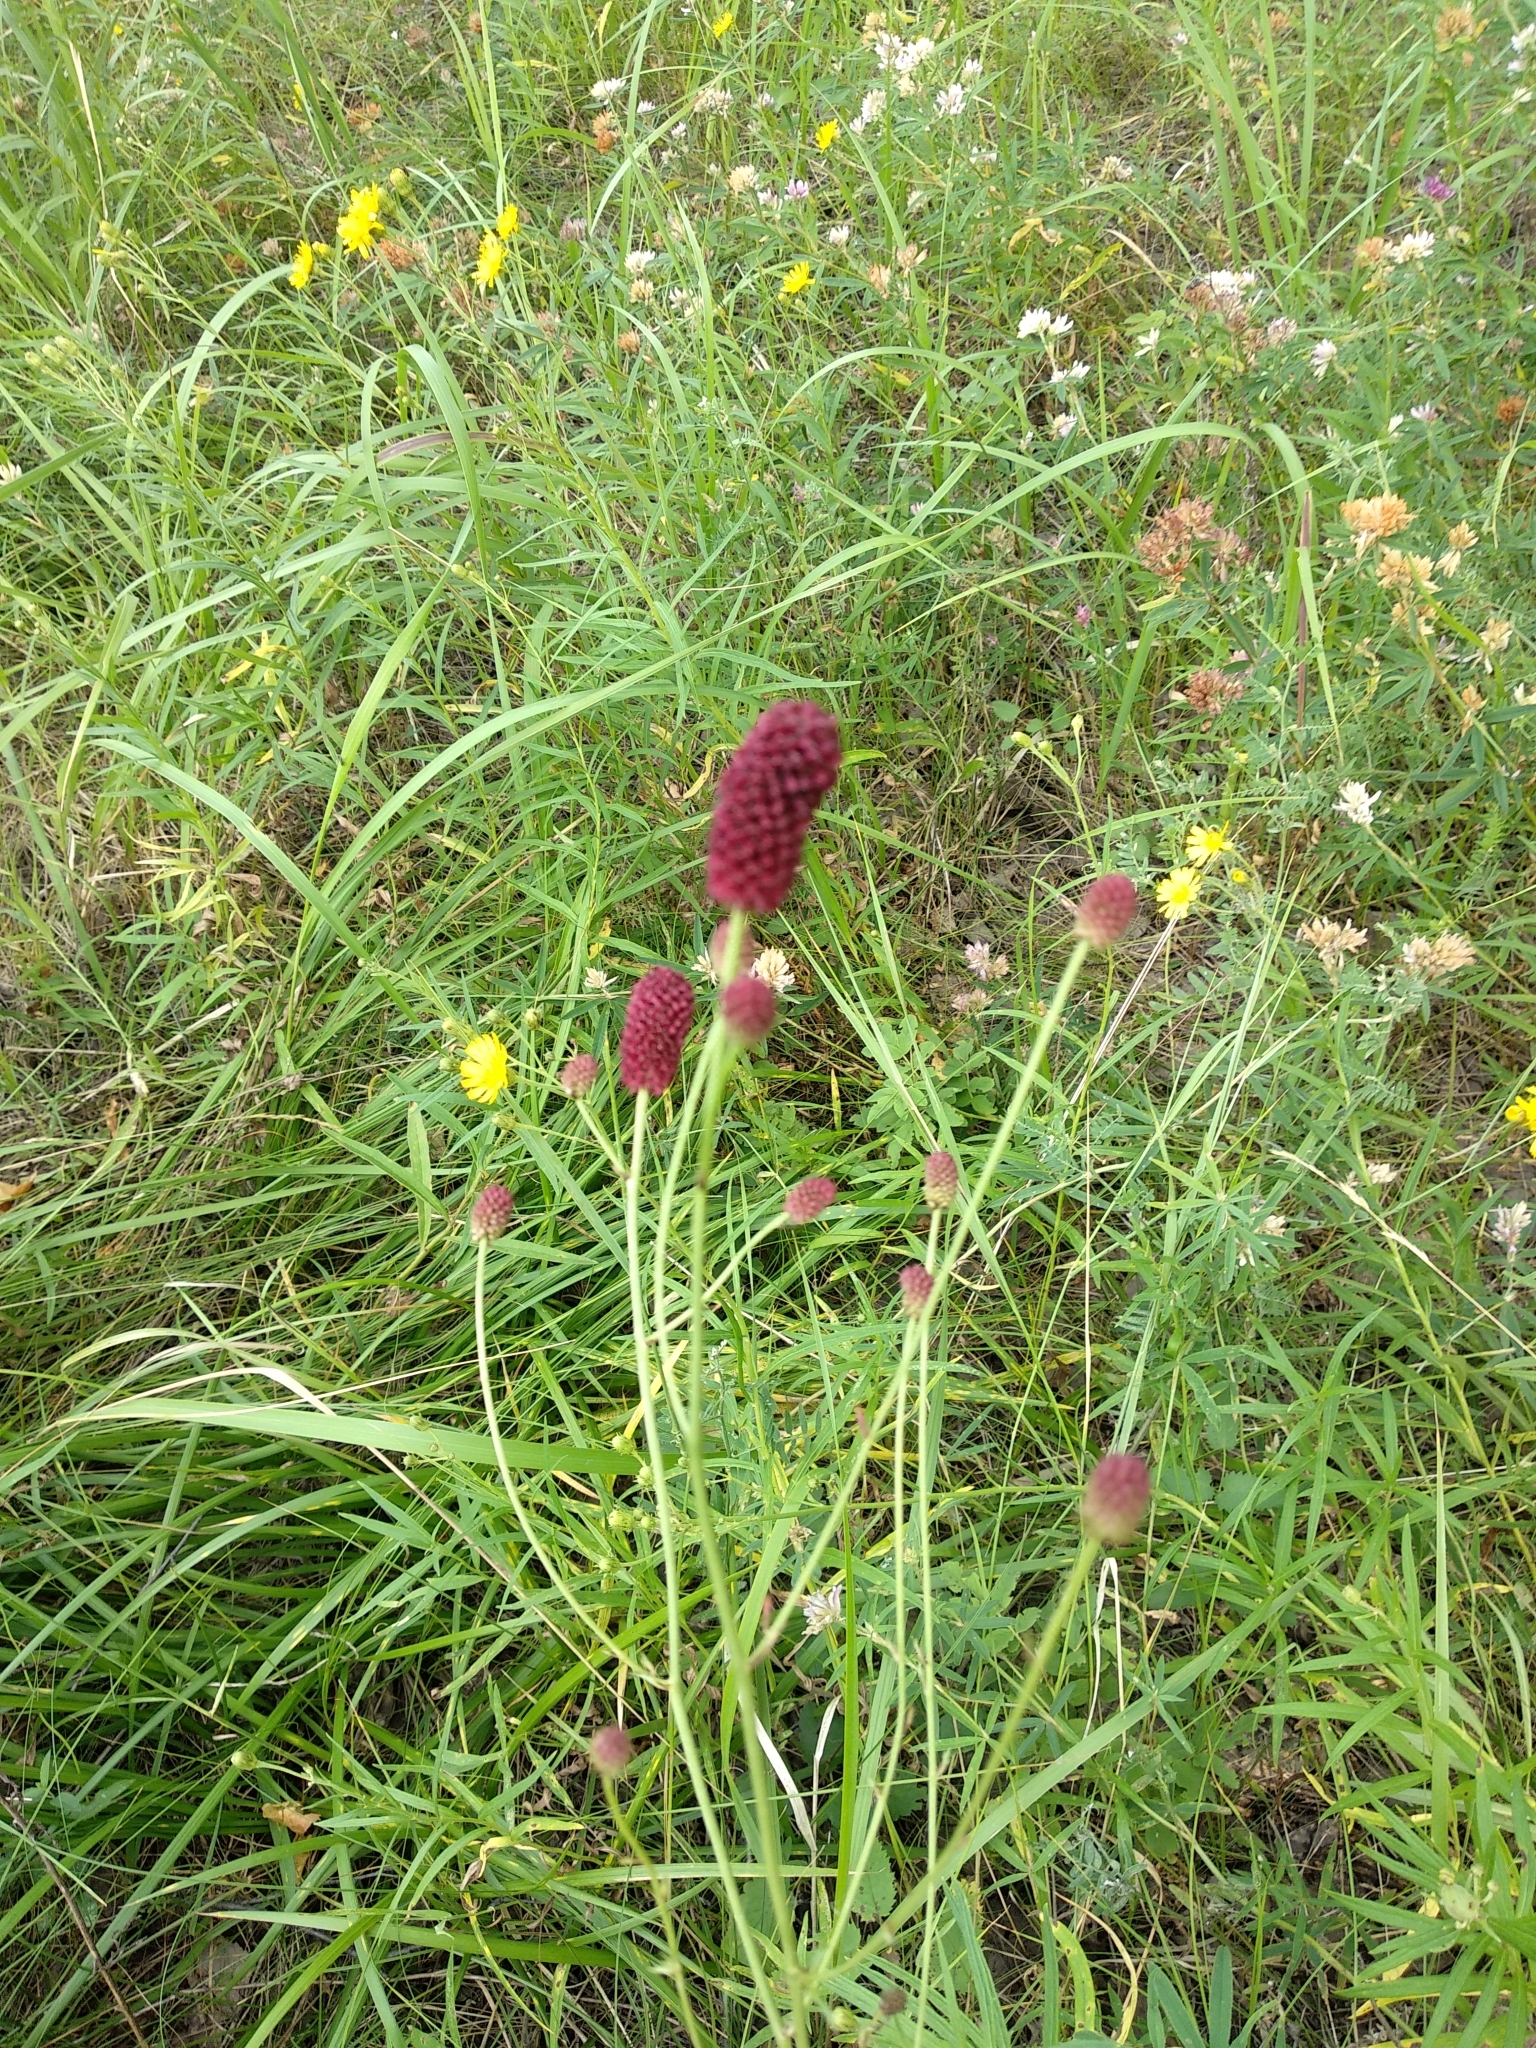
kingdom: Plantae
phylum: Tracheophyta
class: Magnoliopsida
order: Rosales
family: Rosaceae
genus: Sanguisorba
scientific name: Sanguisorba officinalis
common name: Great burnet
